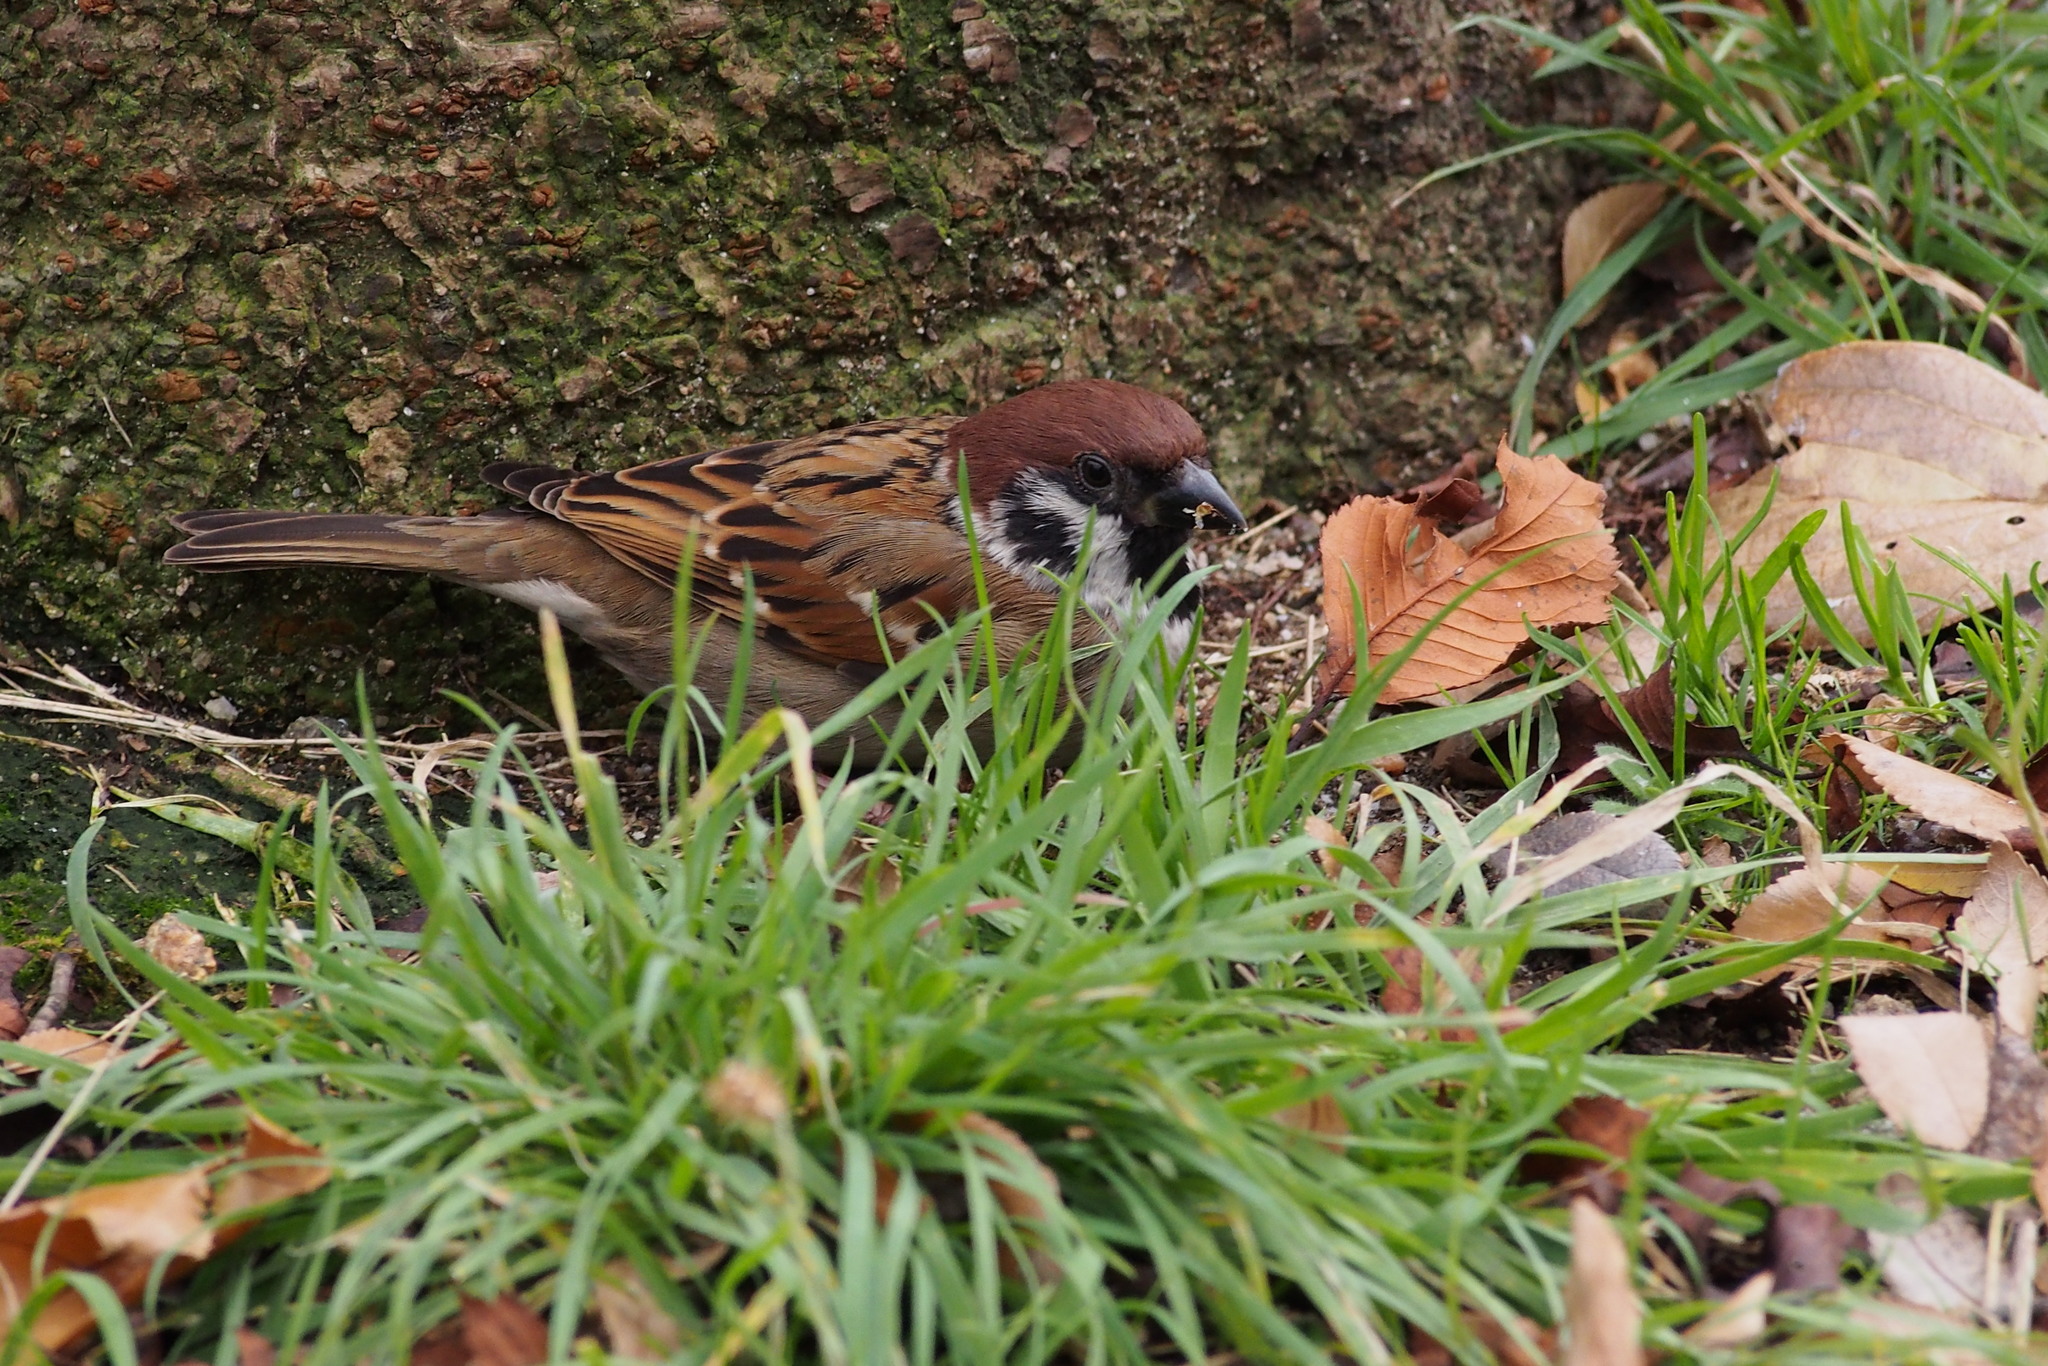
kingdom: Animalia
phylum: Chordata
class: Aves
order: Passeriformes
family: Passeridae
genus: Passer
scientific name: Passer montanus
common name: Eurasian tree sparrow
